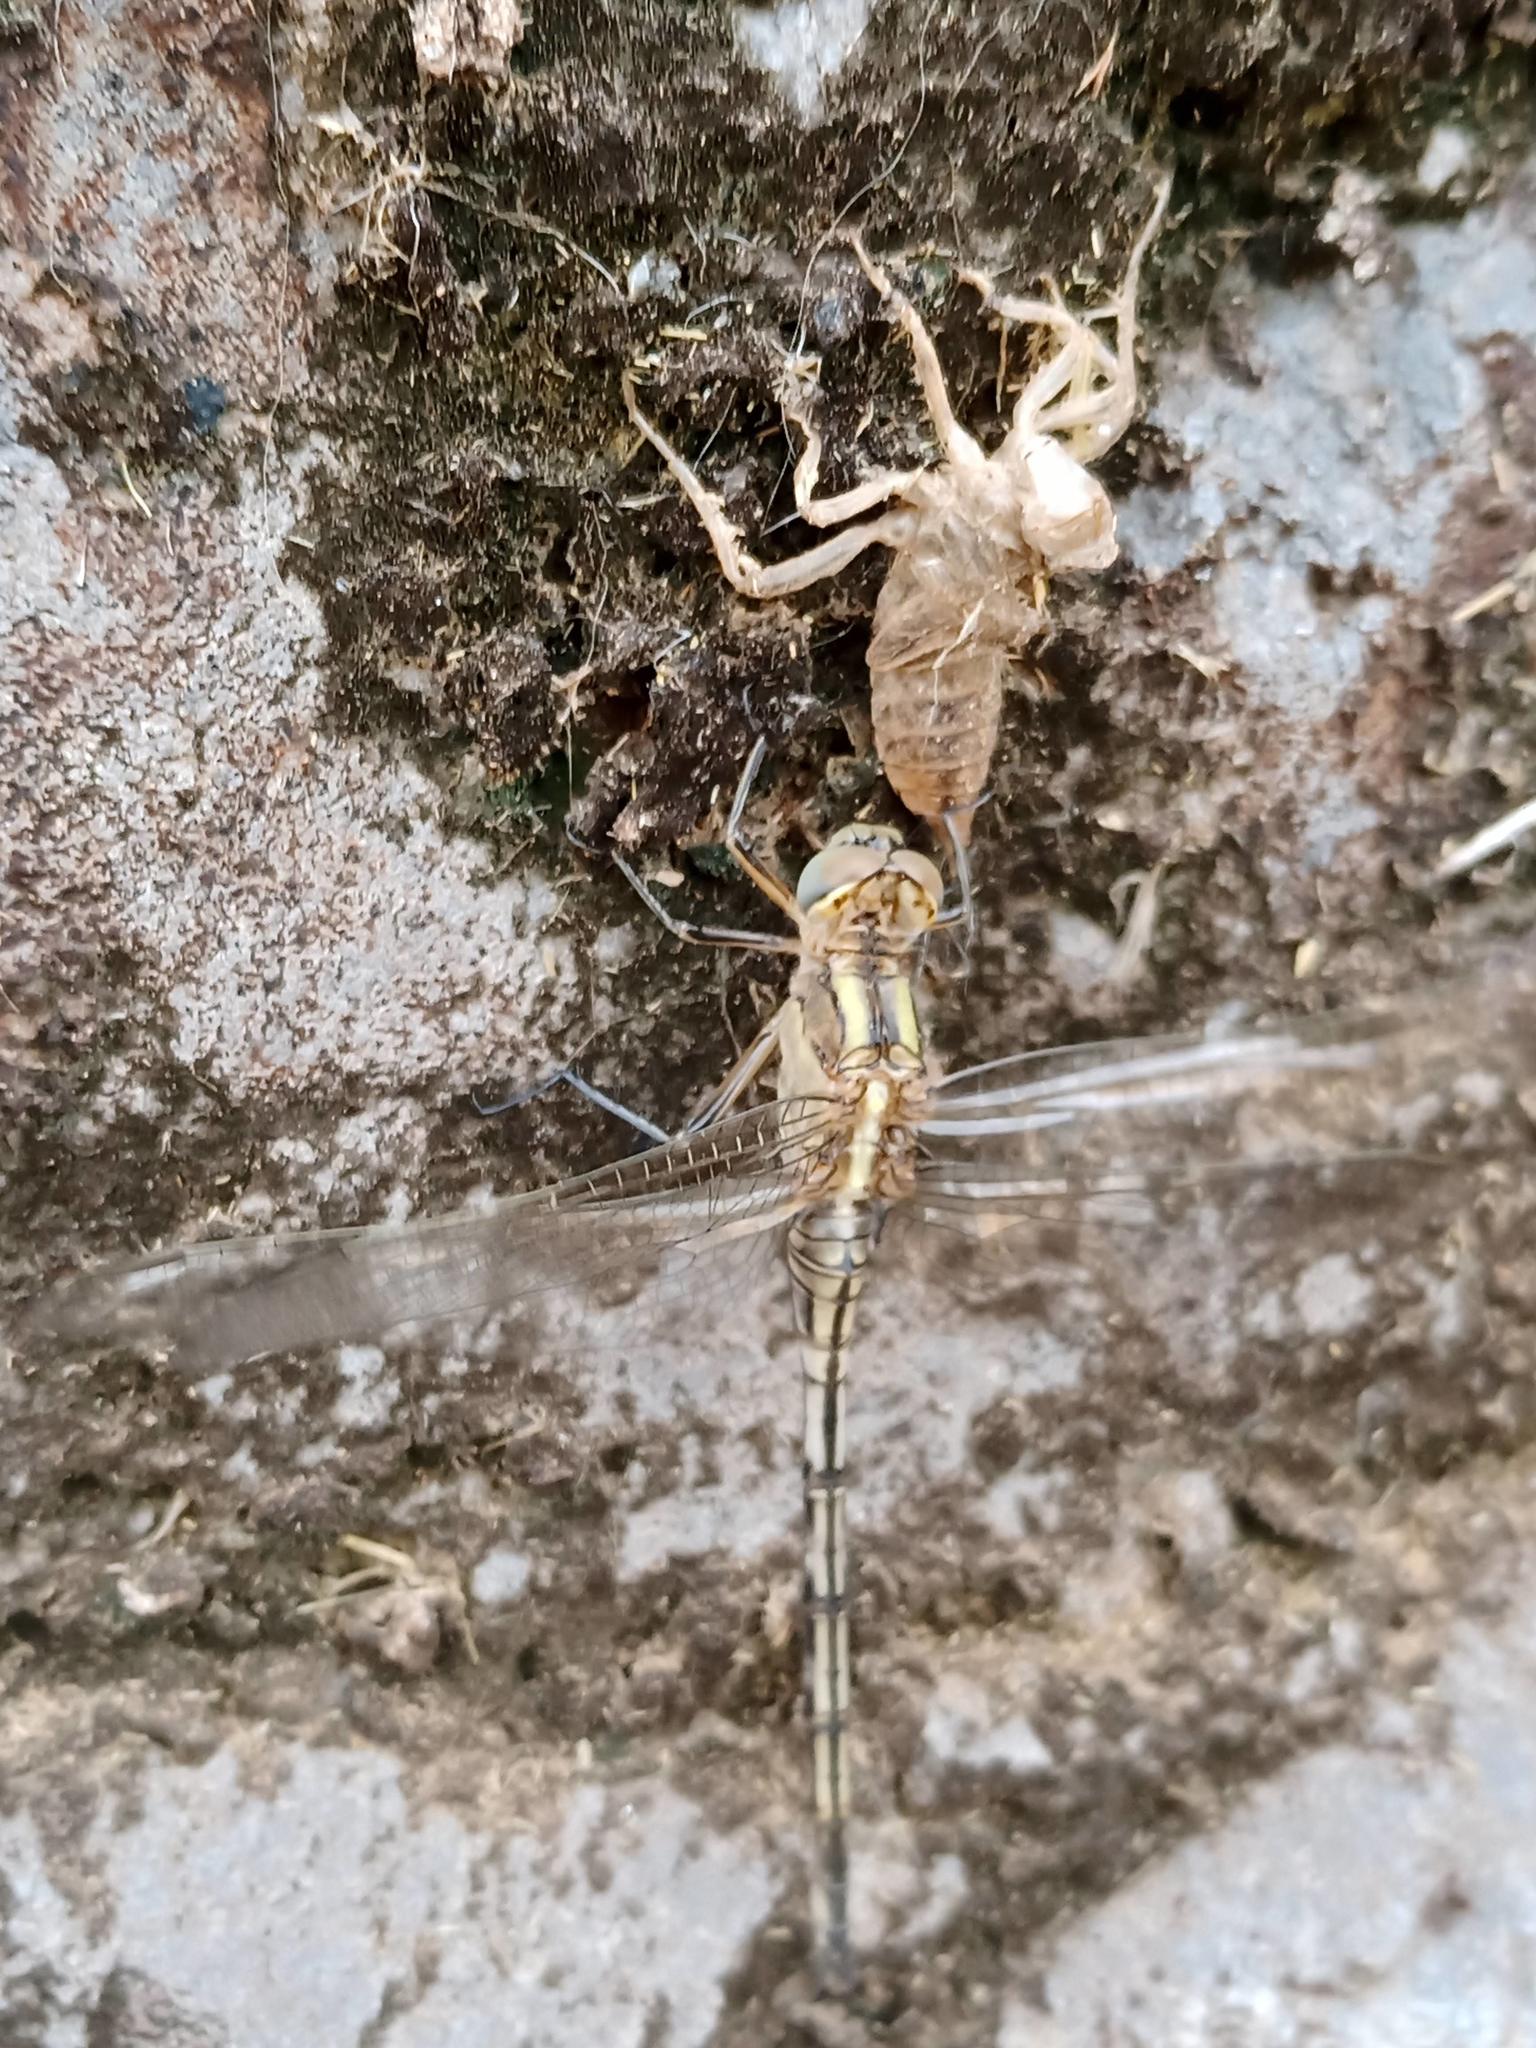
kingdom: Animalia
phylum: Arthropoda
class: Insecta
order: Odonata
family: Libellulidae
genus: Orthetrum
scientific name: Orthetrum trinacria
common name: Long skimmer
